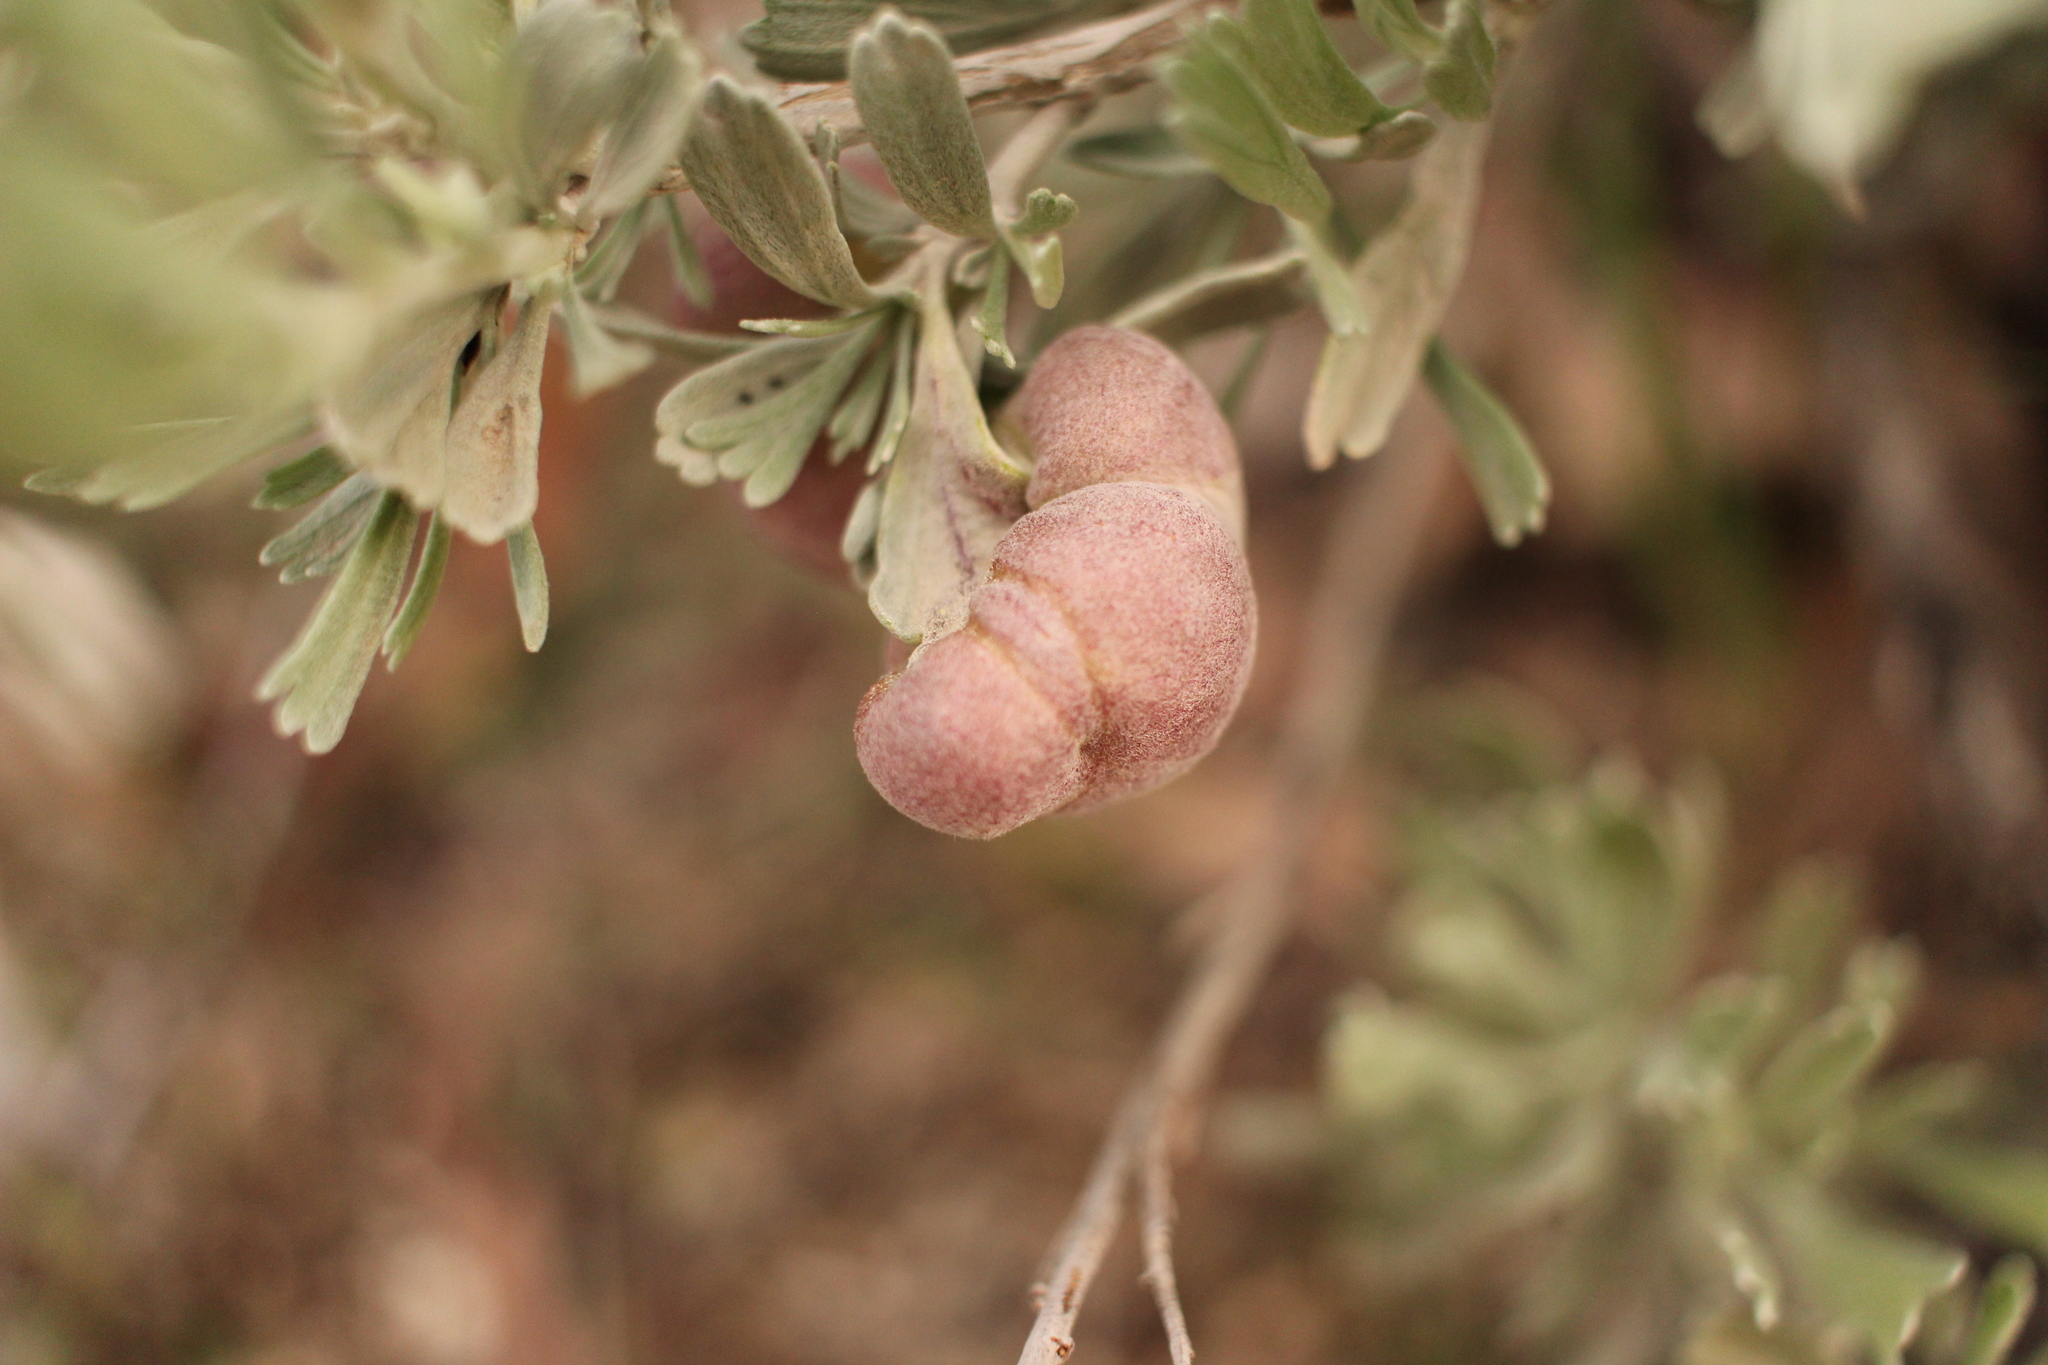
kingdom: Animalia
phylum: Arthropoda
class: Insecta
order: Diptera
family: Cecidomyiidae
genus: Rhopalomyia
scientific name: Rhopalomyia pomum
